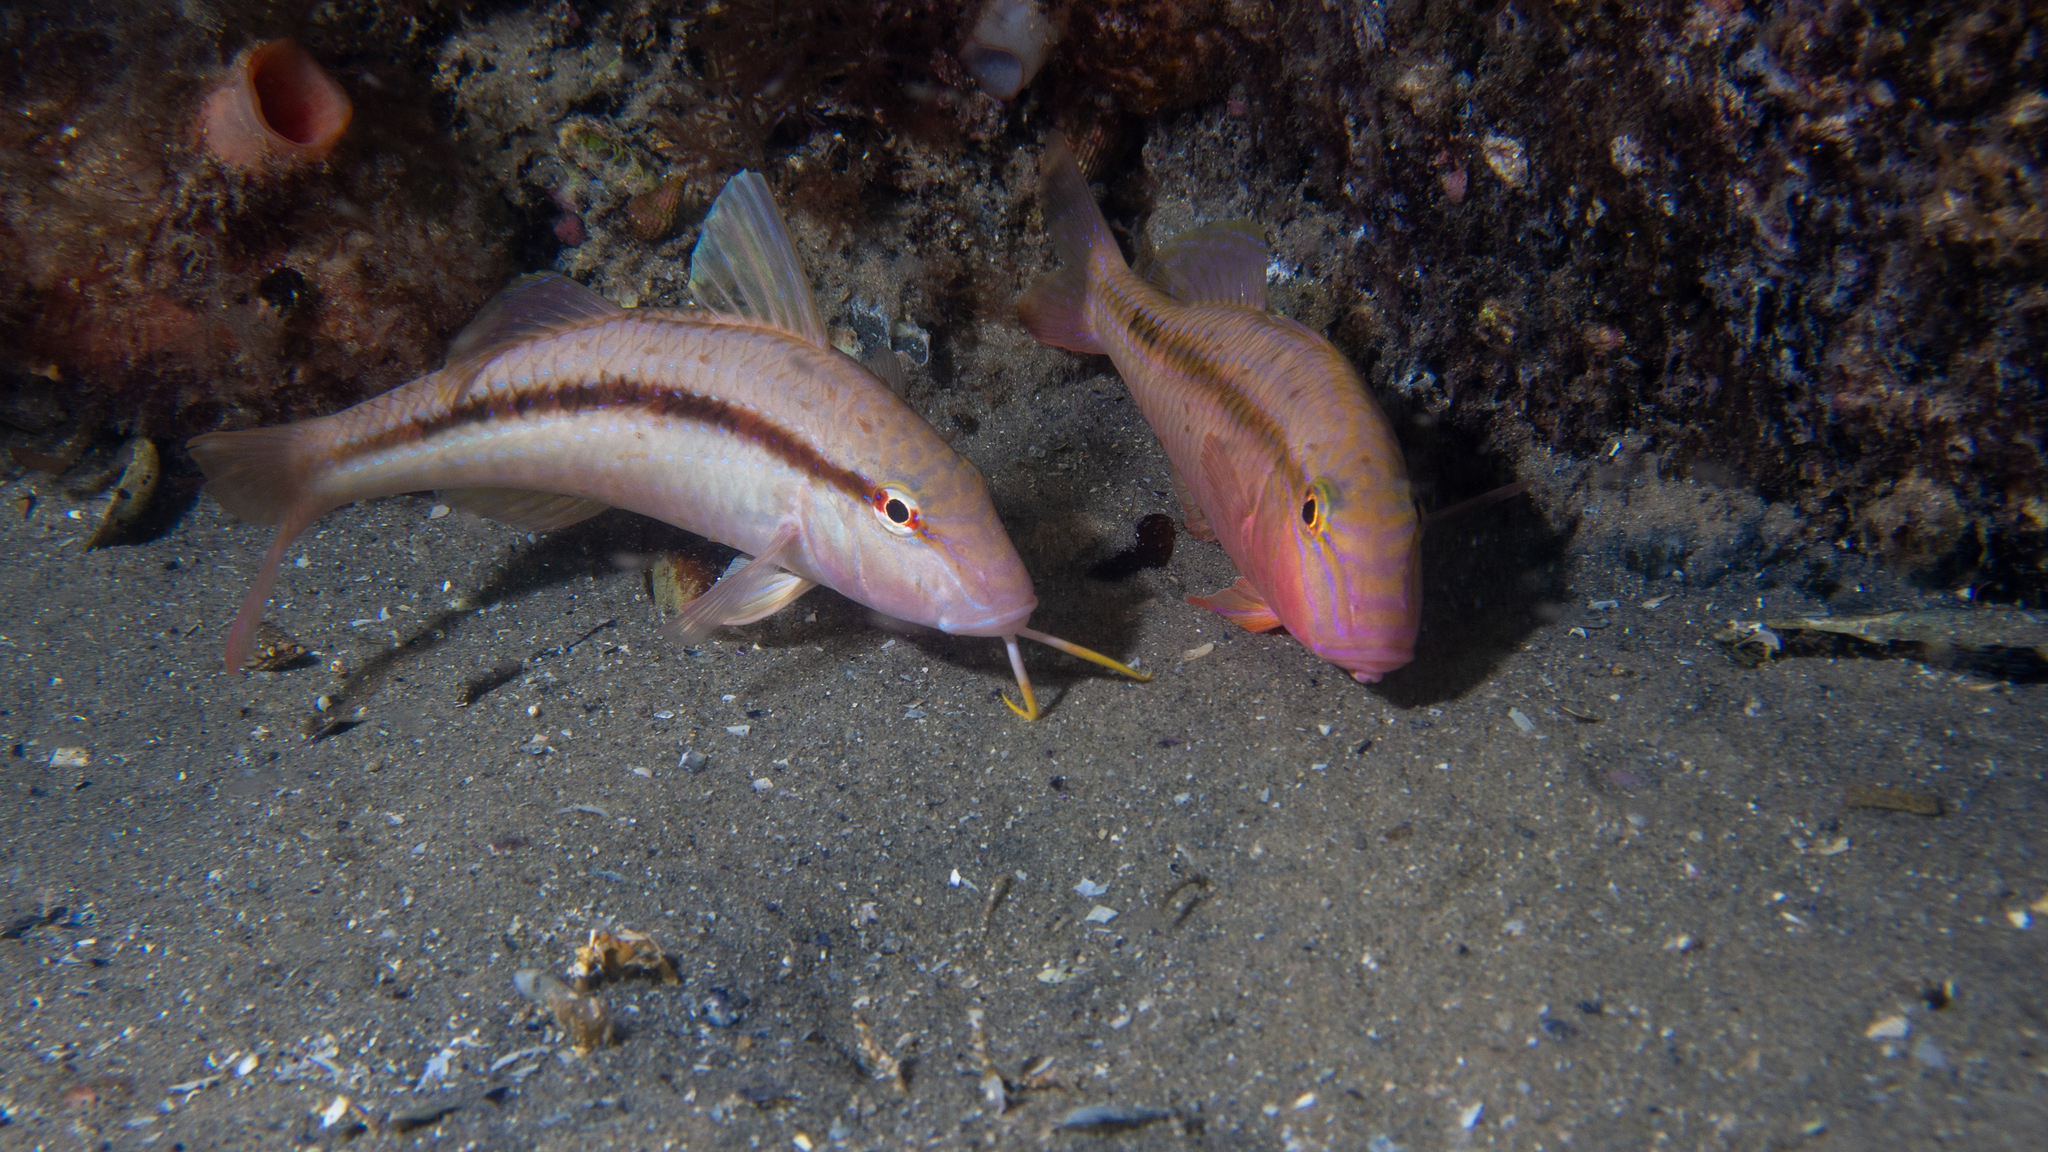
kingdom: Animalia
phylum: Chordata
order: Perciformes
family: Mullidae
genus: Upeneichthys
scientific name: Upeneichthys vlamingii
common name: Red mullet
